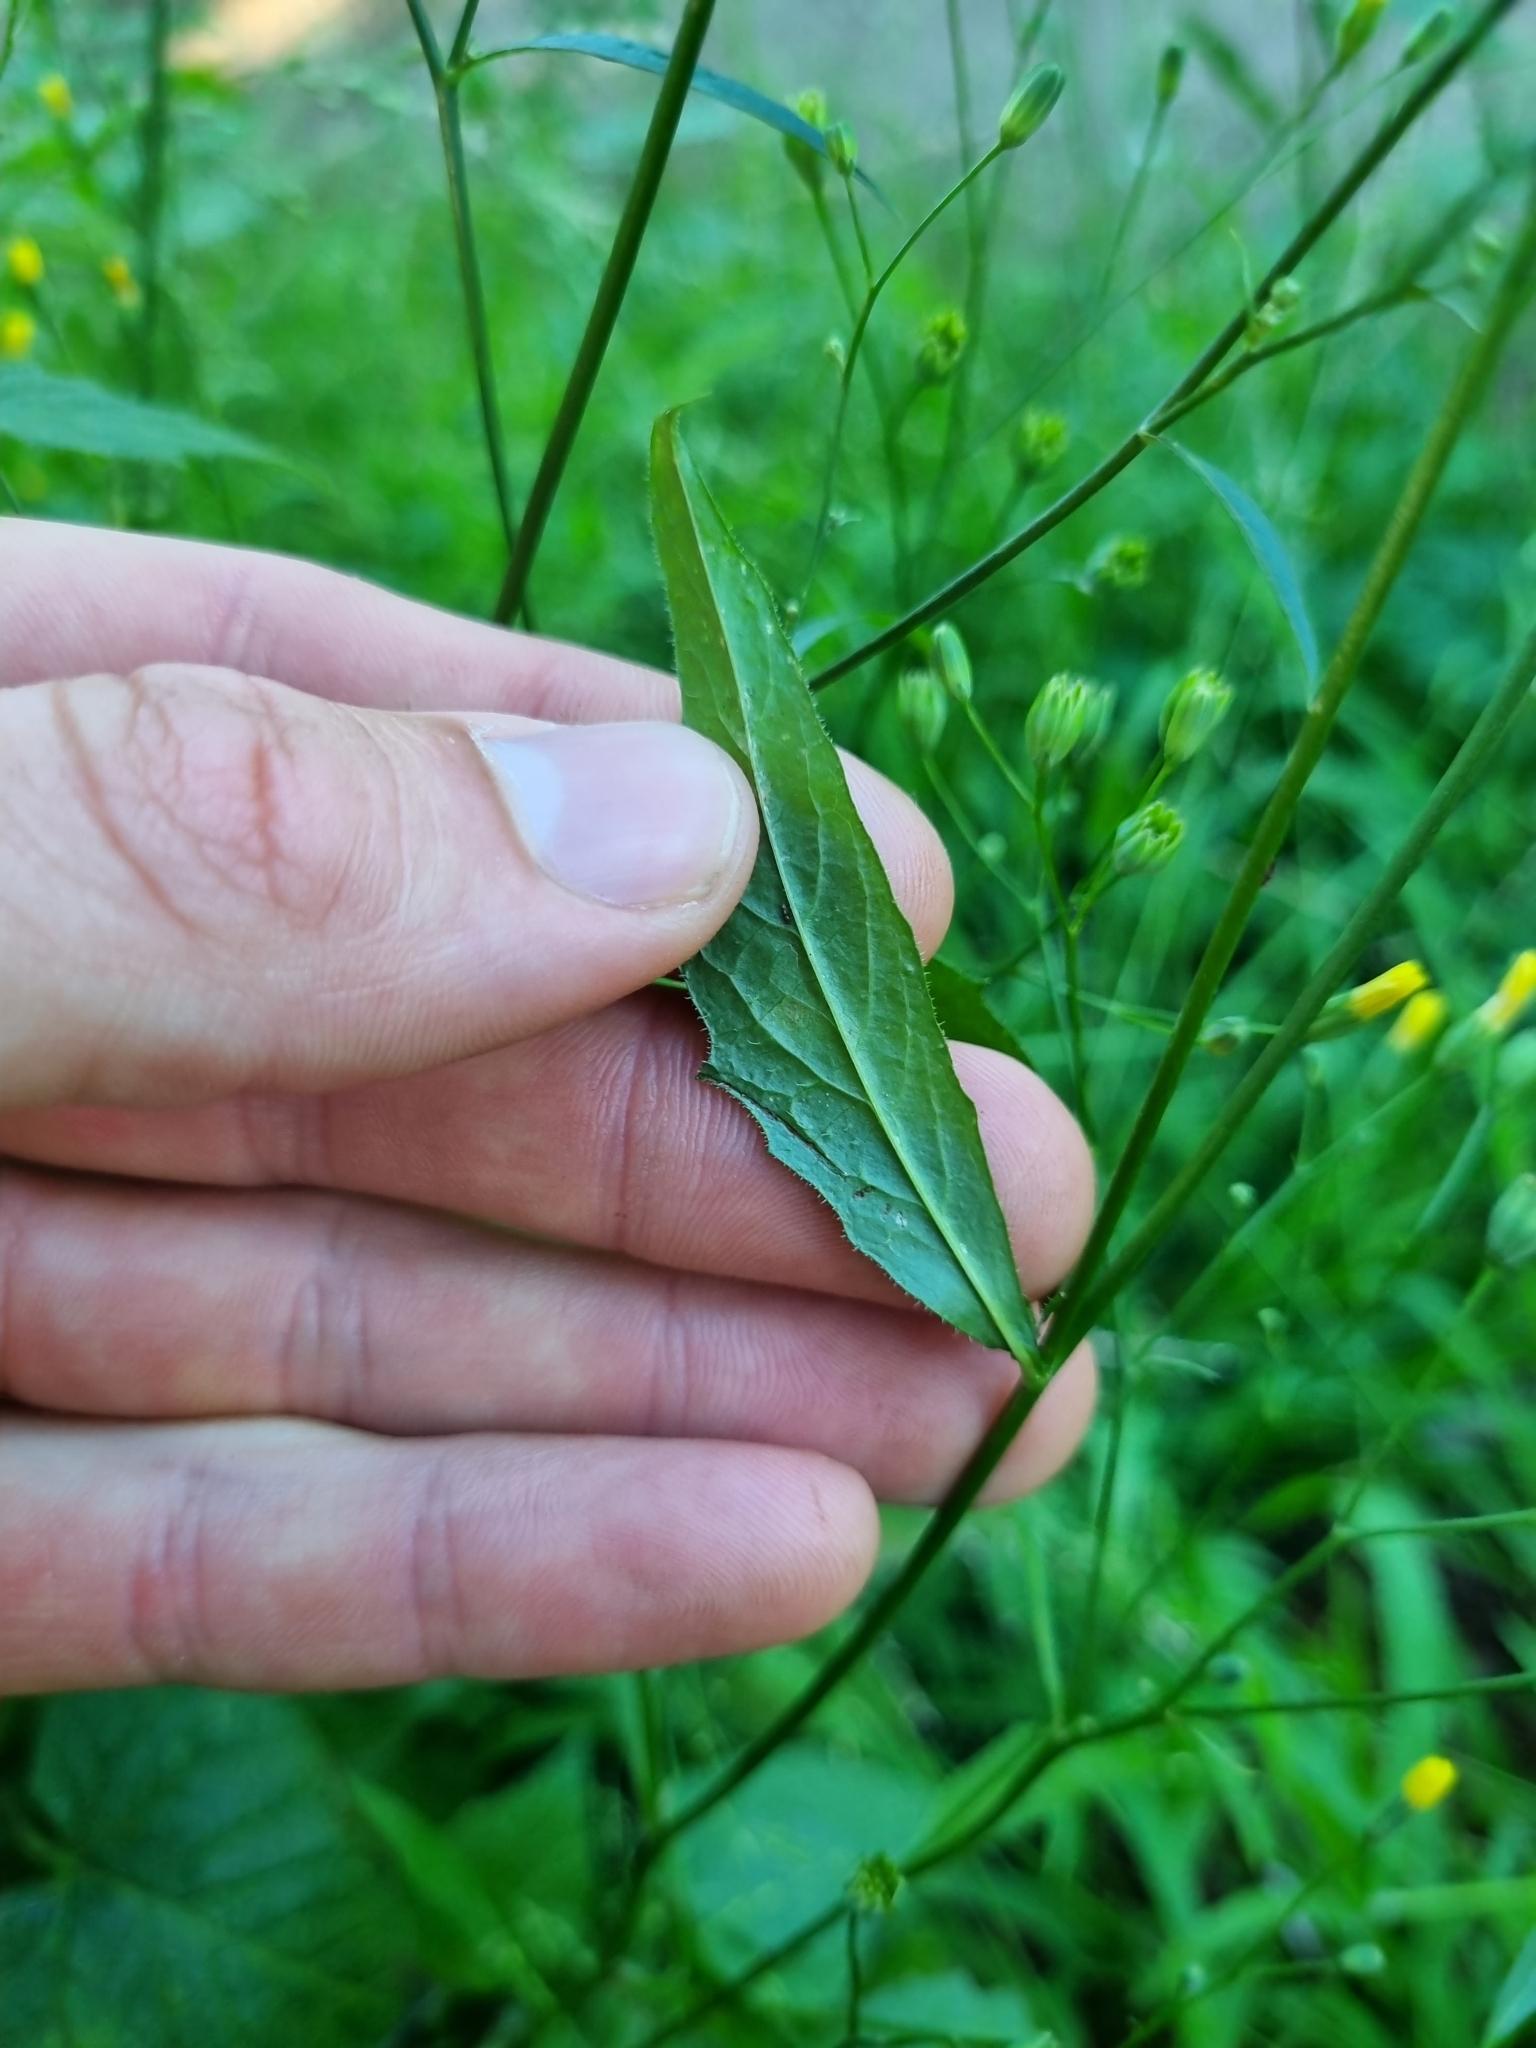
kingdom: Plantae
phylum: Tracheophyta
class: Magnoliopsida
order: Asterales
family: Asteraceae
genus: Lapsana
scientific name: Lapsana communis
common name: Nipplewort
